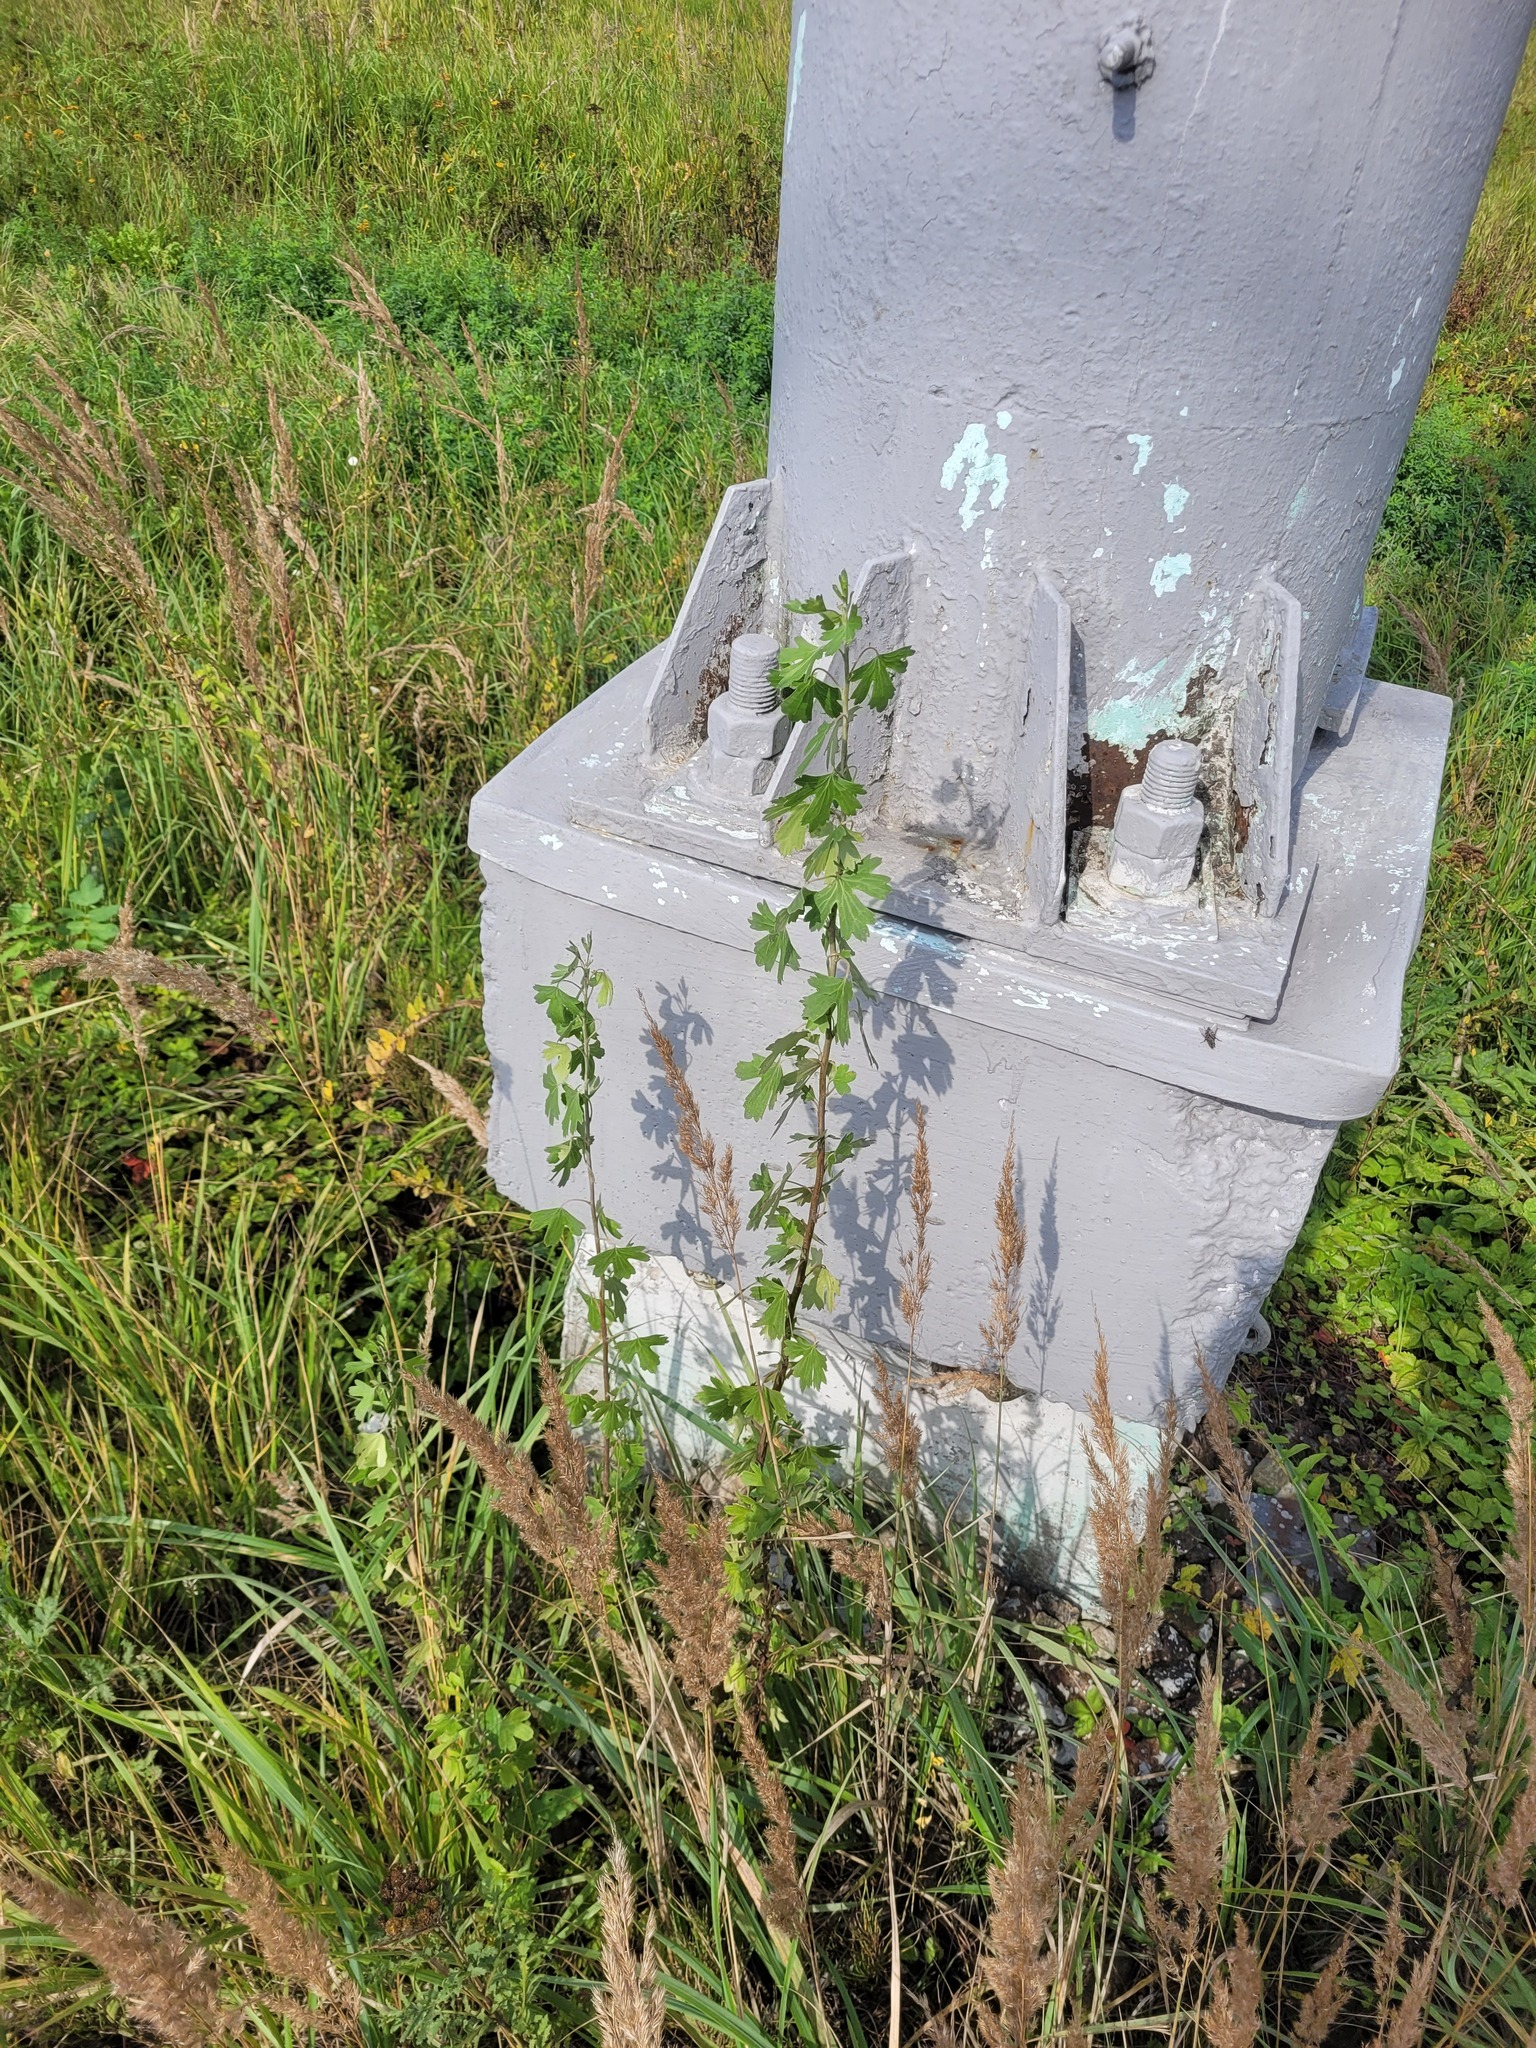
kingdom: Plantae
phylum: Tracheophyta
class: Magnoliopsida
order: Saxifragales
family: Grossulariaceae
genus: Ribes
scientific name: Ribes aureum
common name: Golden currant
